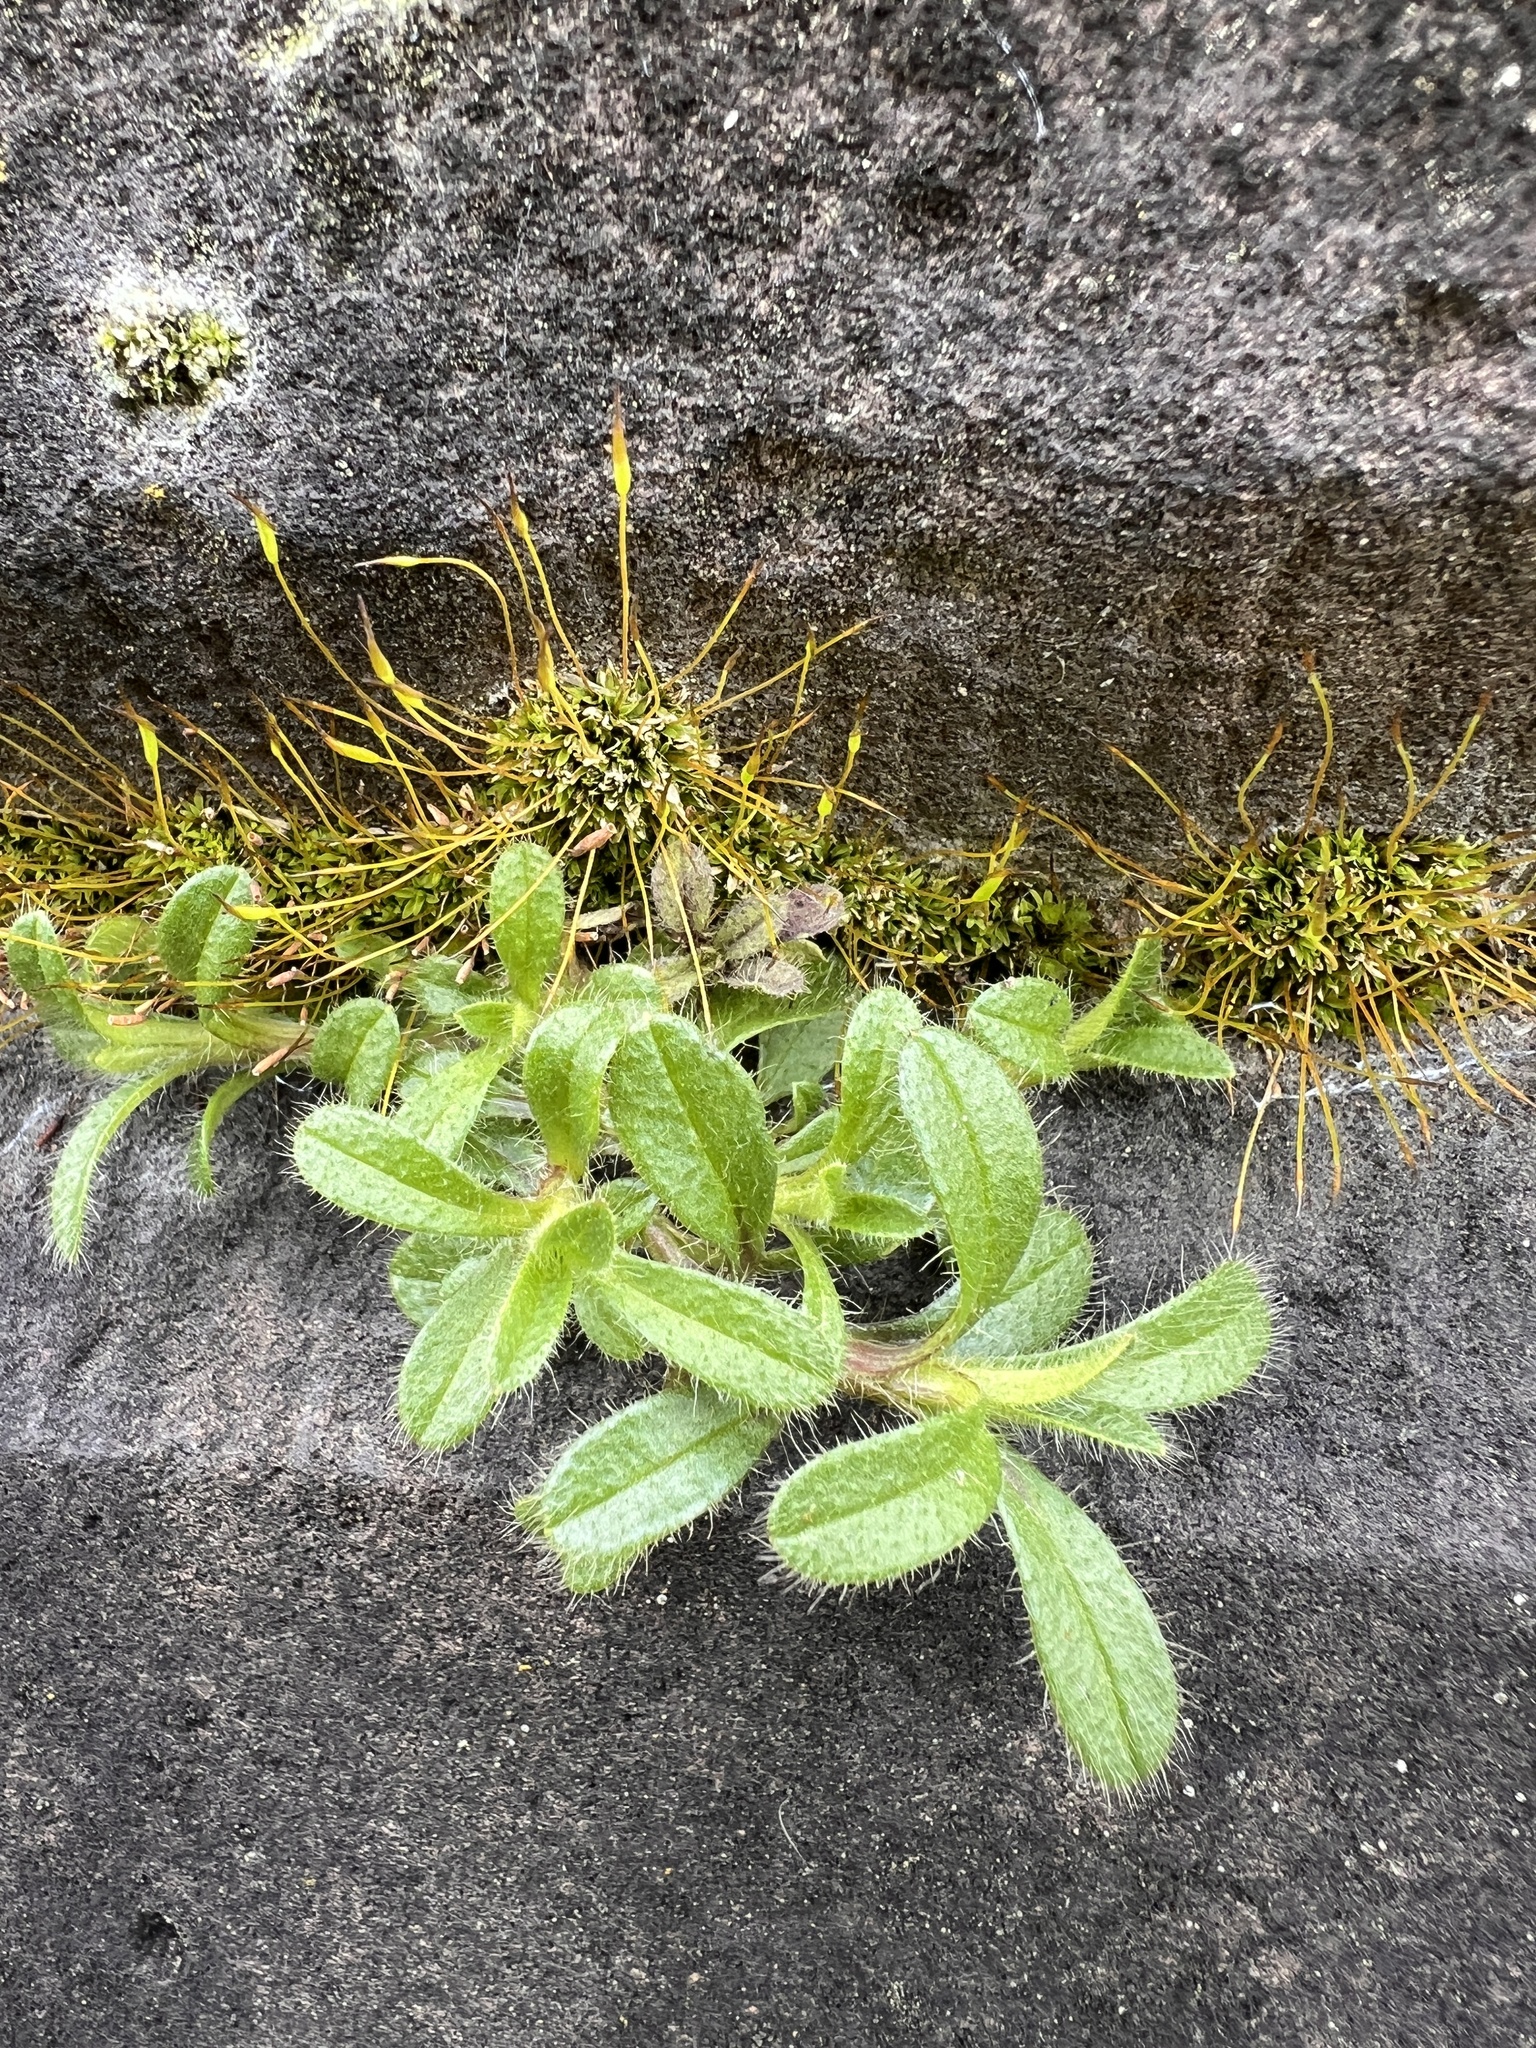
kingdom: Plantae
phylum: Tracheophyta
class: Magnoliopsida
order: Caryophyllales
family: Caryophyllaceae
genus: Cerastium
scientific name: Cerastium fontanum
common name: Common mouse-ear
